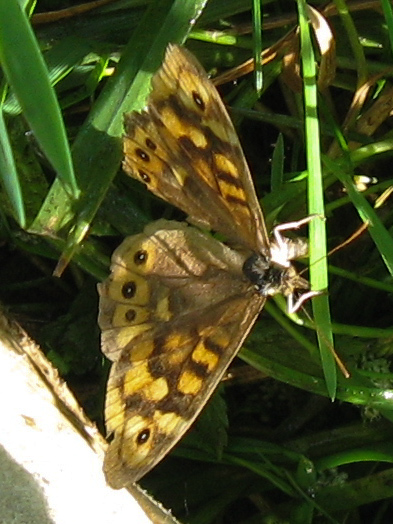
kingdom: Animalia
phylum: Arthropoda
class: Insecta
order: Lepidoptera
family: Nymphalidae
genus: Pararge
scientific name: Pararge aegeria
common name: Speckled wood
